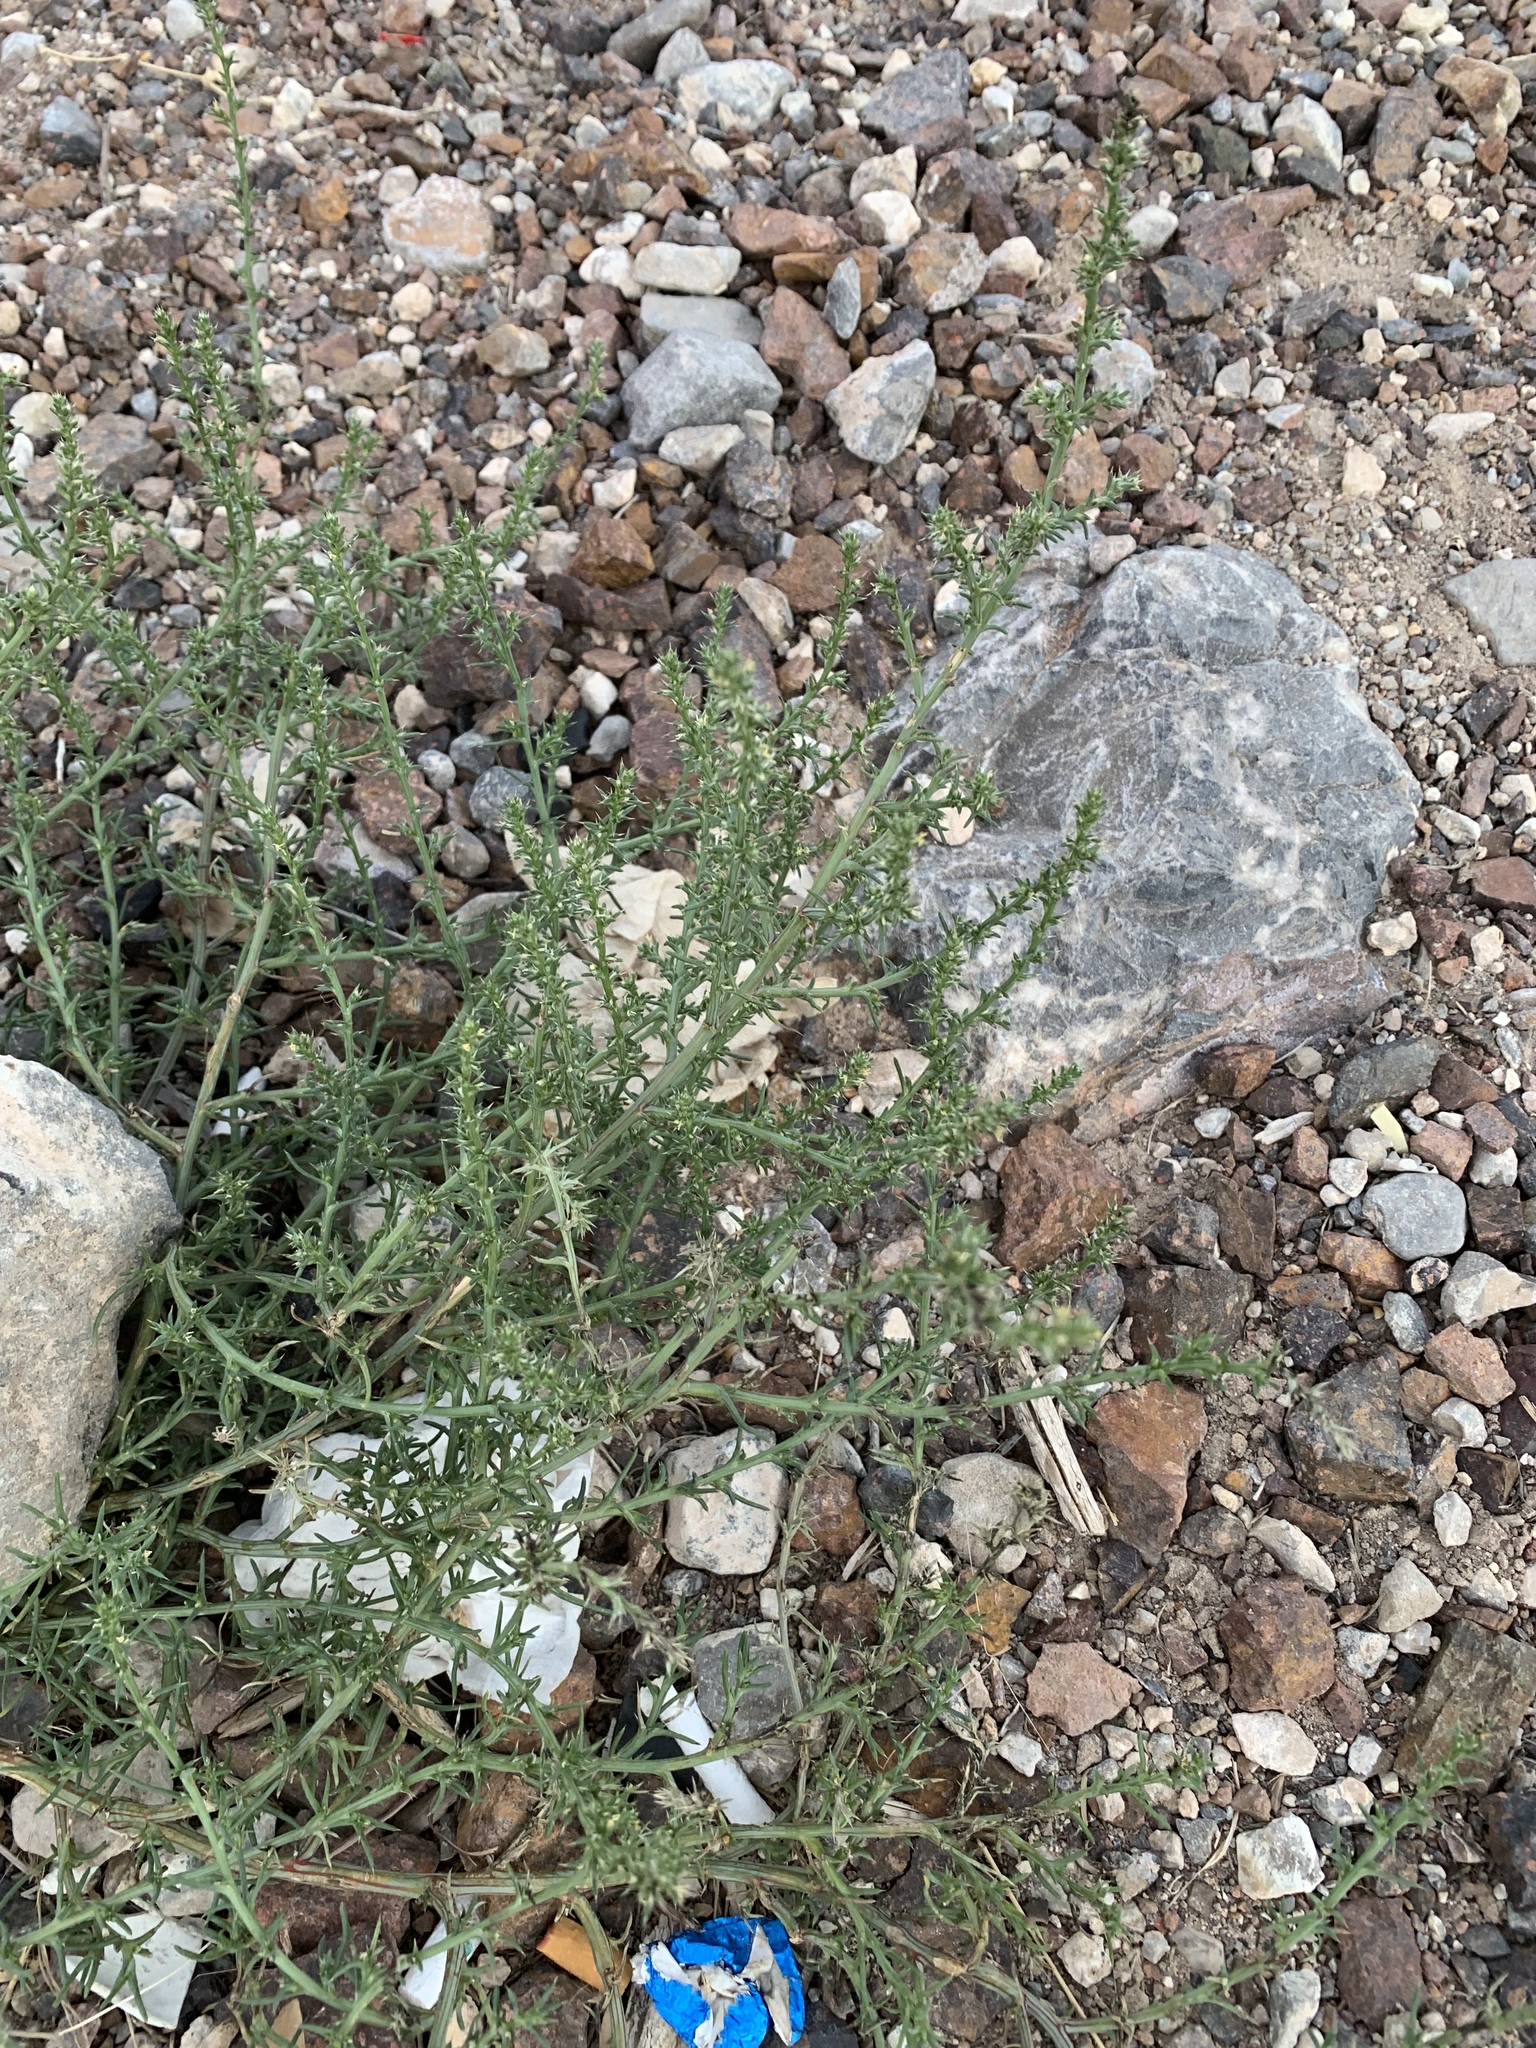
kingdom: Plantae
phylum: Tracheophyta
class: Magnoliopsida
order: Caryophyllales
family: Amaranthaceae
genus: Salsola
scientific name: Salsola tragus
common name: Prickly russian thistle
